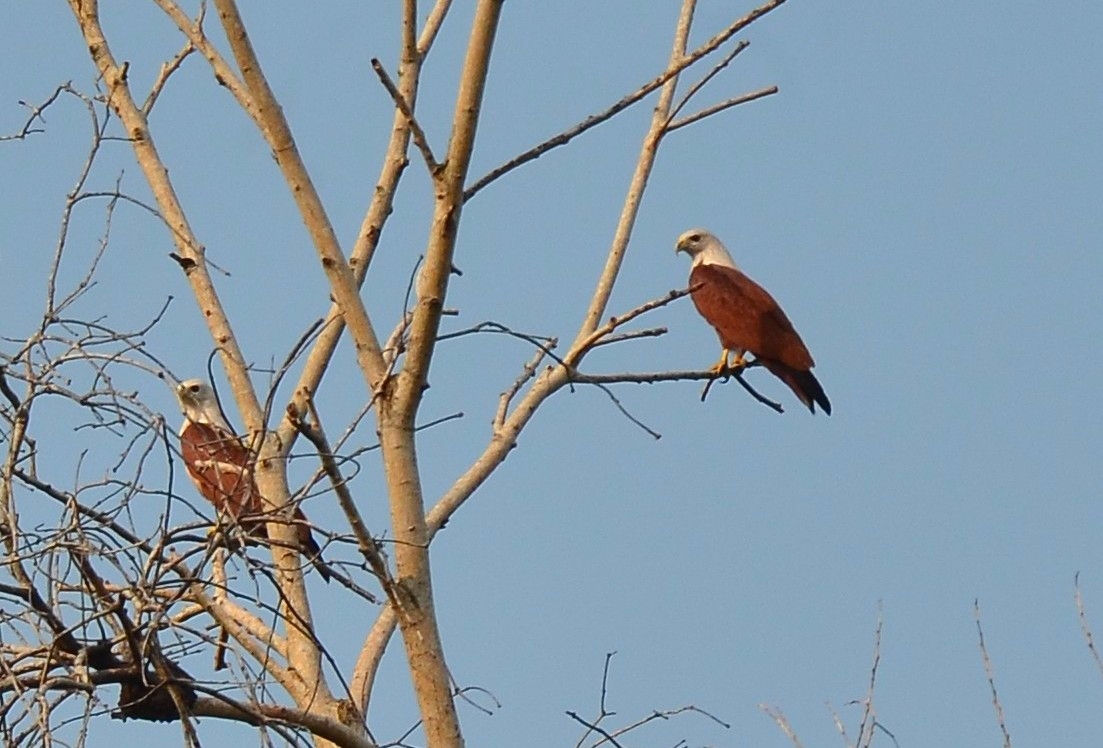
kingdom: Animalia
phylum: Chordata
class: Aves
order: Accipitriformes
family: Accipitridae
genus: Haliastur
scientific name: Haliastur indus
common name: Brahminy kite
